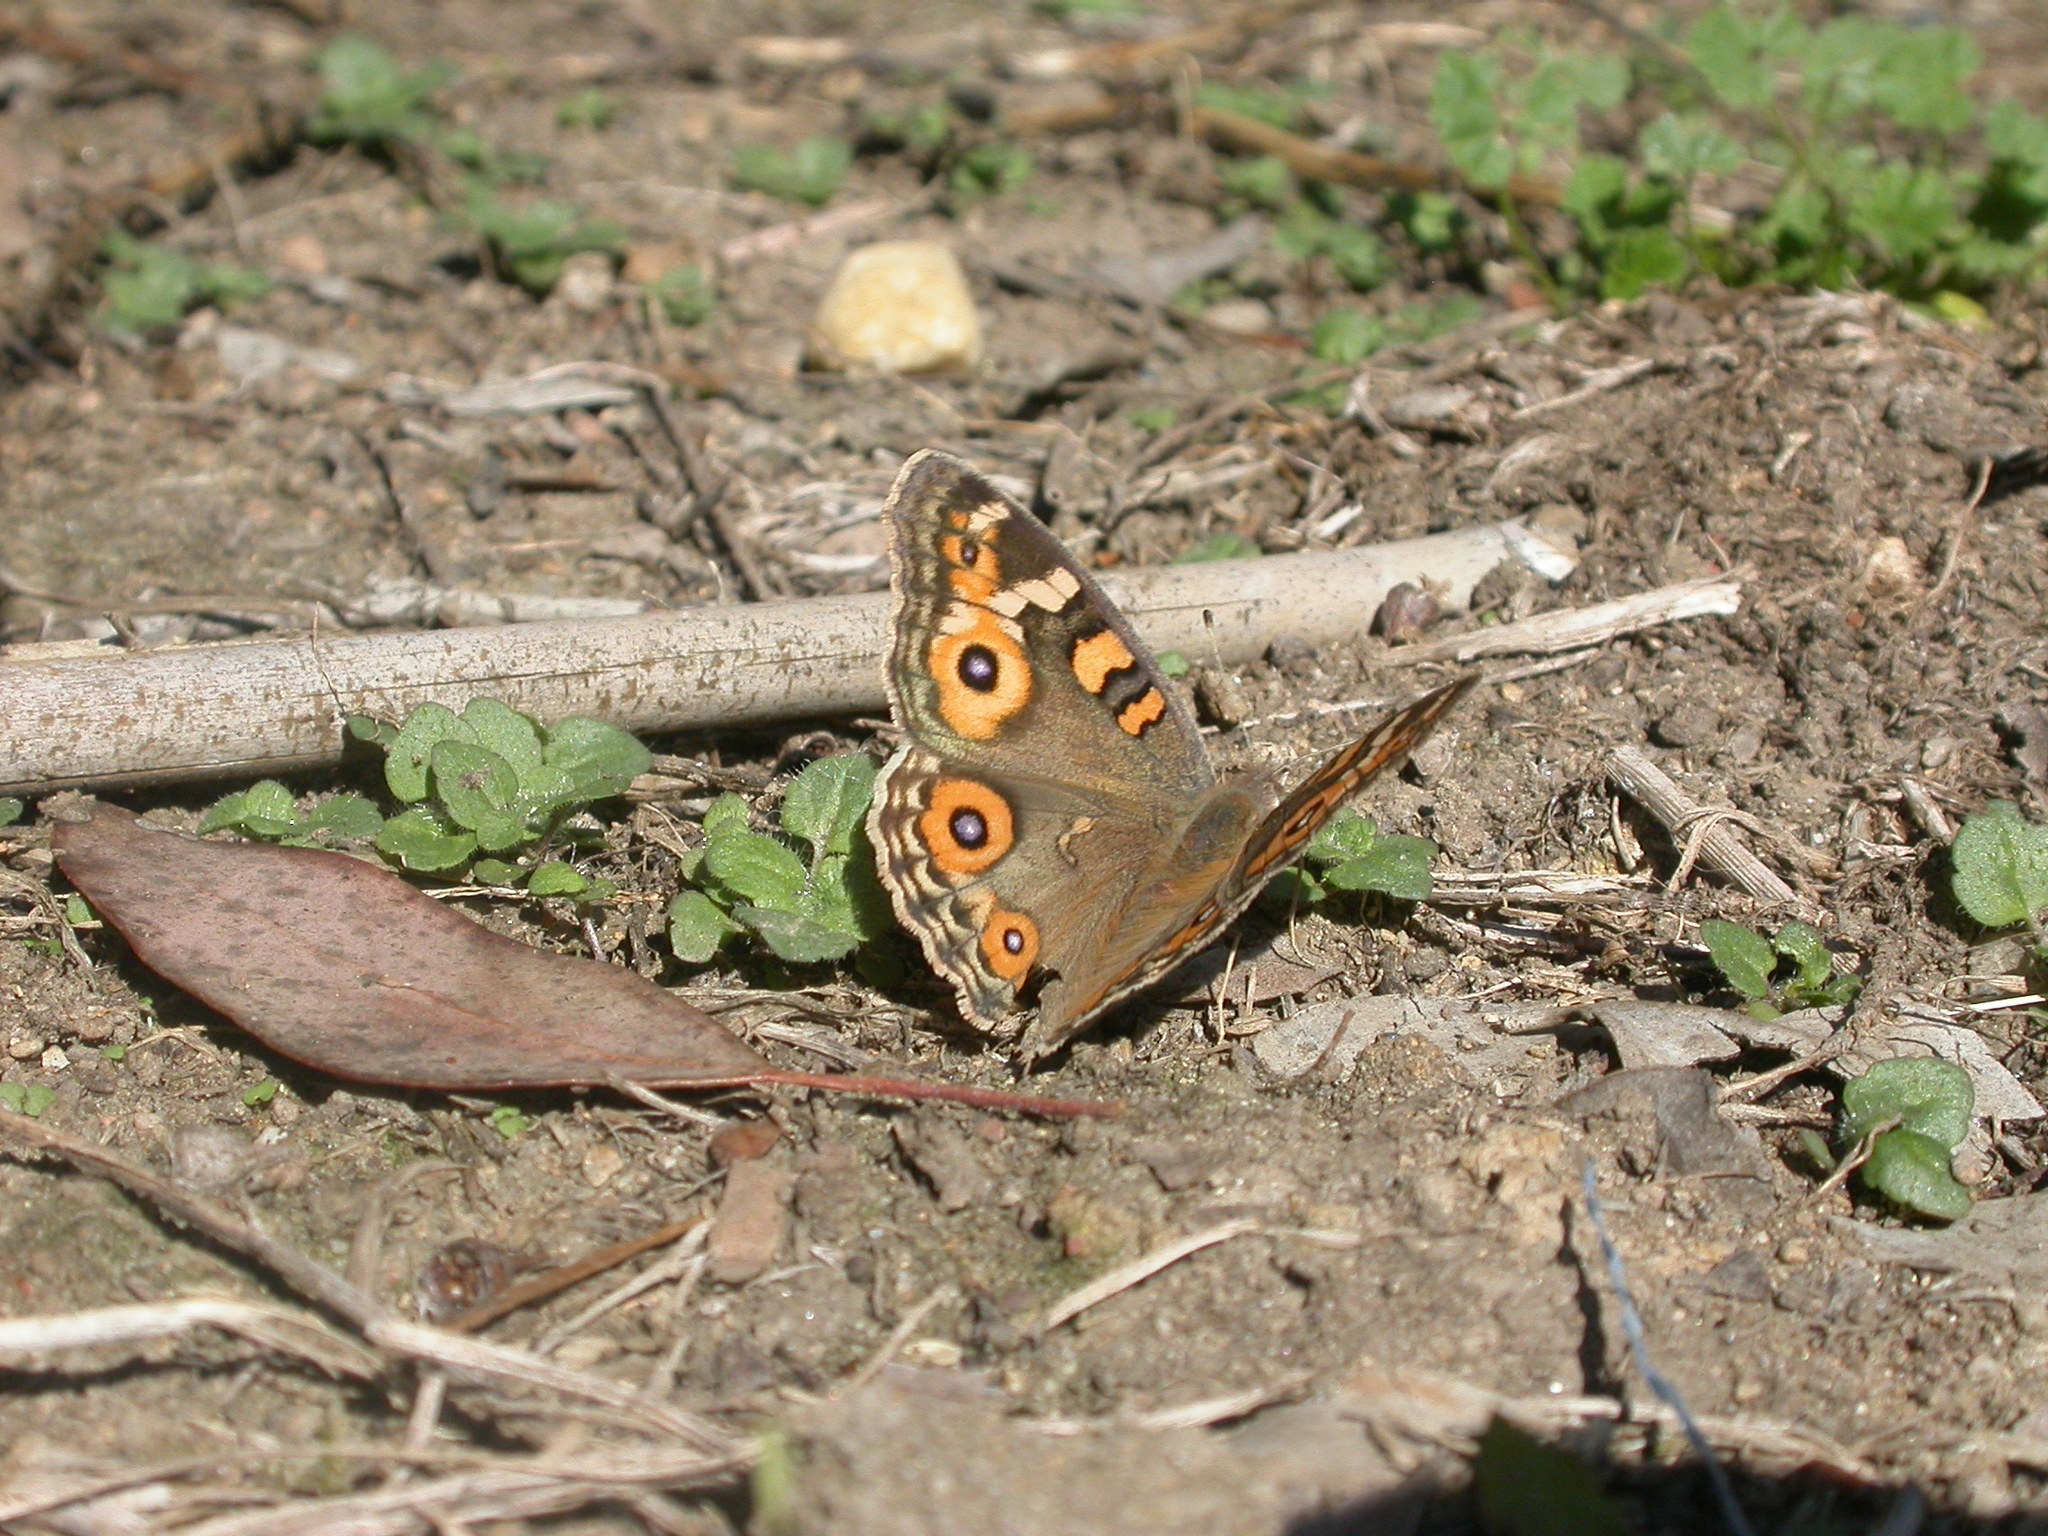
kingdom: Animalia
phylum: Arthropoda
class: Insecta
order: Lepidoptera
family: Nymphalidae
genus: Junonia
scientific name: Junonia villida
